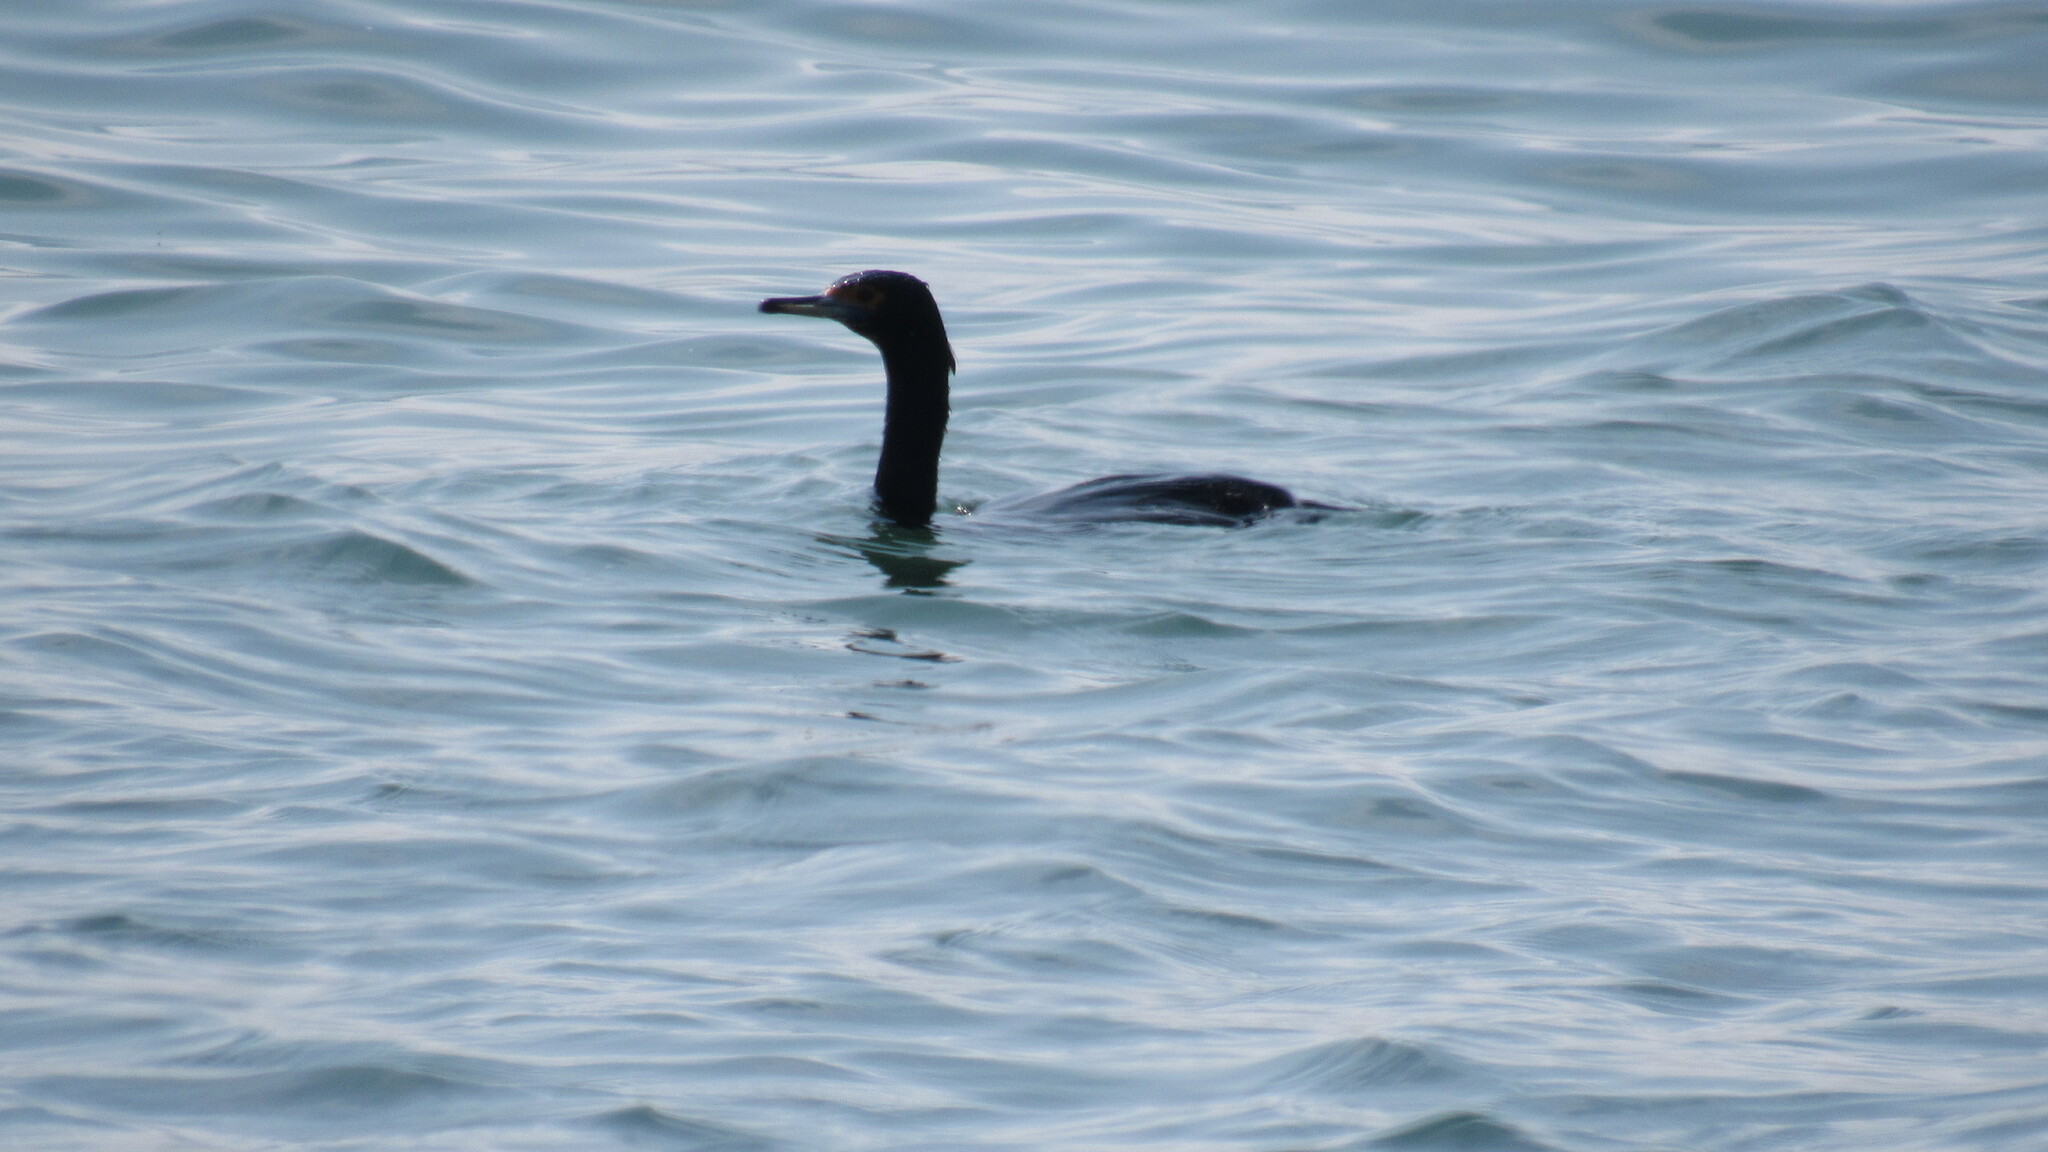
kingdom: Animalia
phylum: Chordata
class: Aves
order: Suliformes
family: Phalacrocoracidae
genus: Phalacrocorax
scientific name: Phalacrocorax urile
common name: Red-faced cormorant
